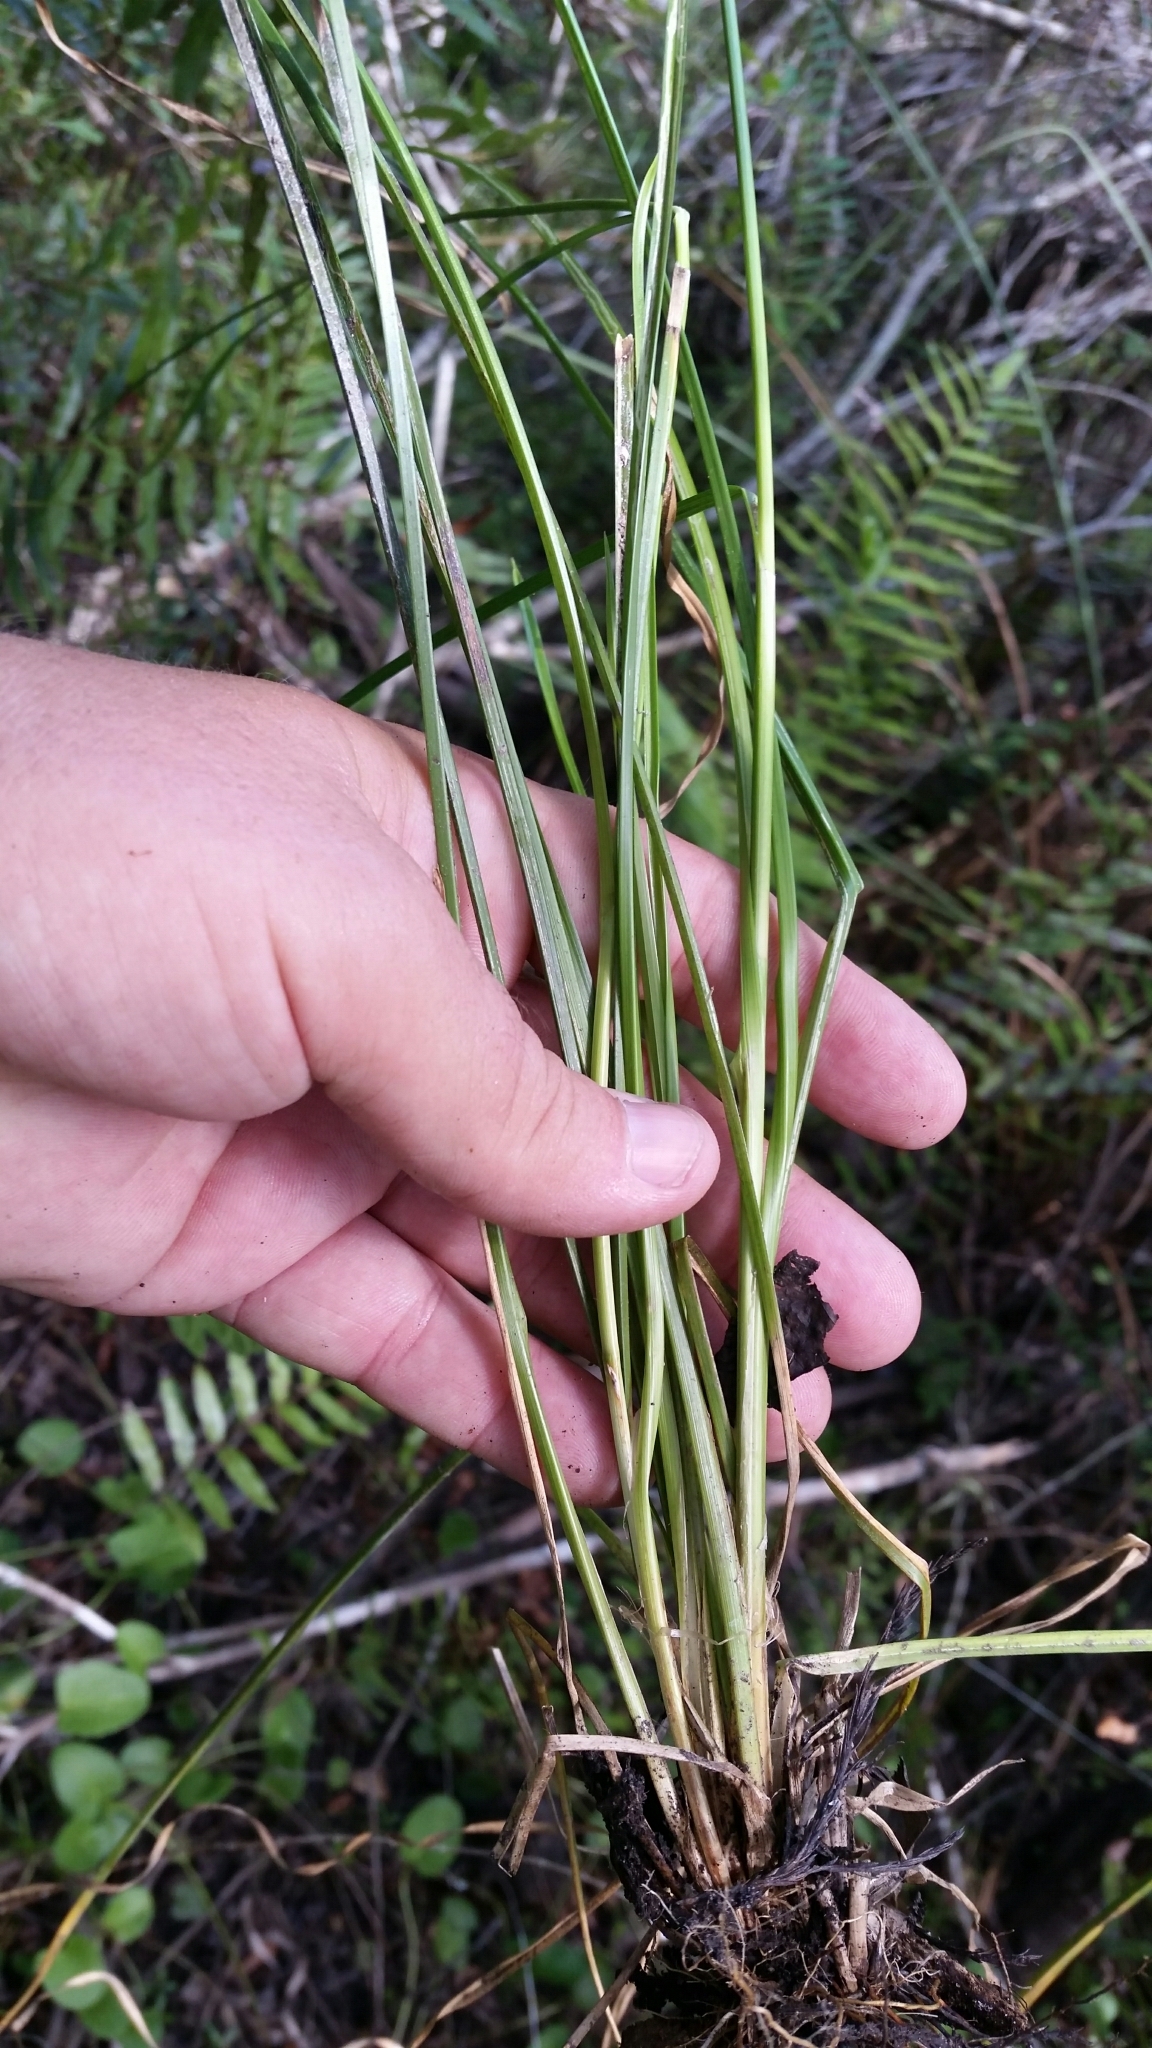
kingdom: Plantae
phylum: Tracheophyta
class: Liliopsida
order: Poales
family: Cyperaceae
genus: Rhynchospora
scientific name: Rhynchospora microcarpa
